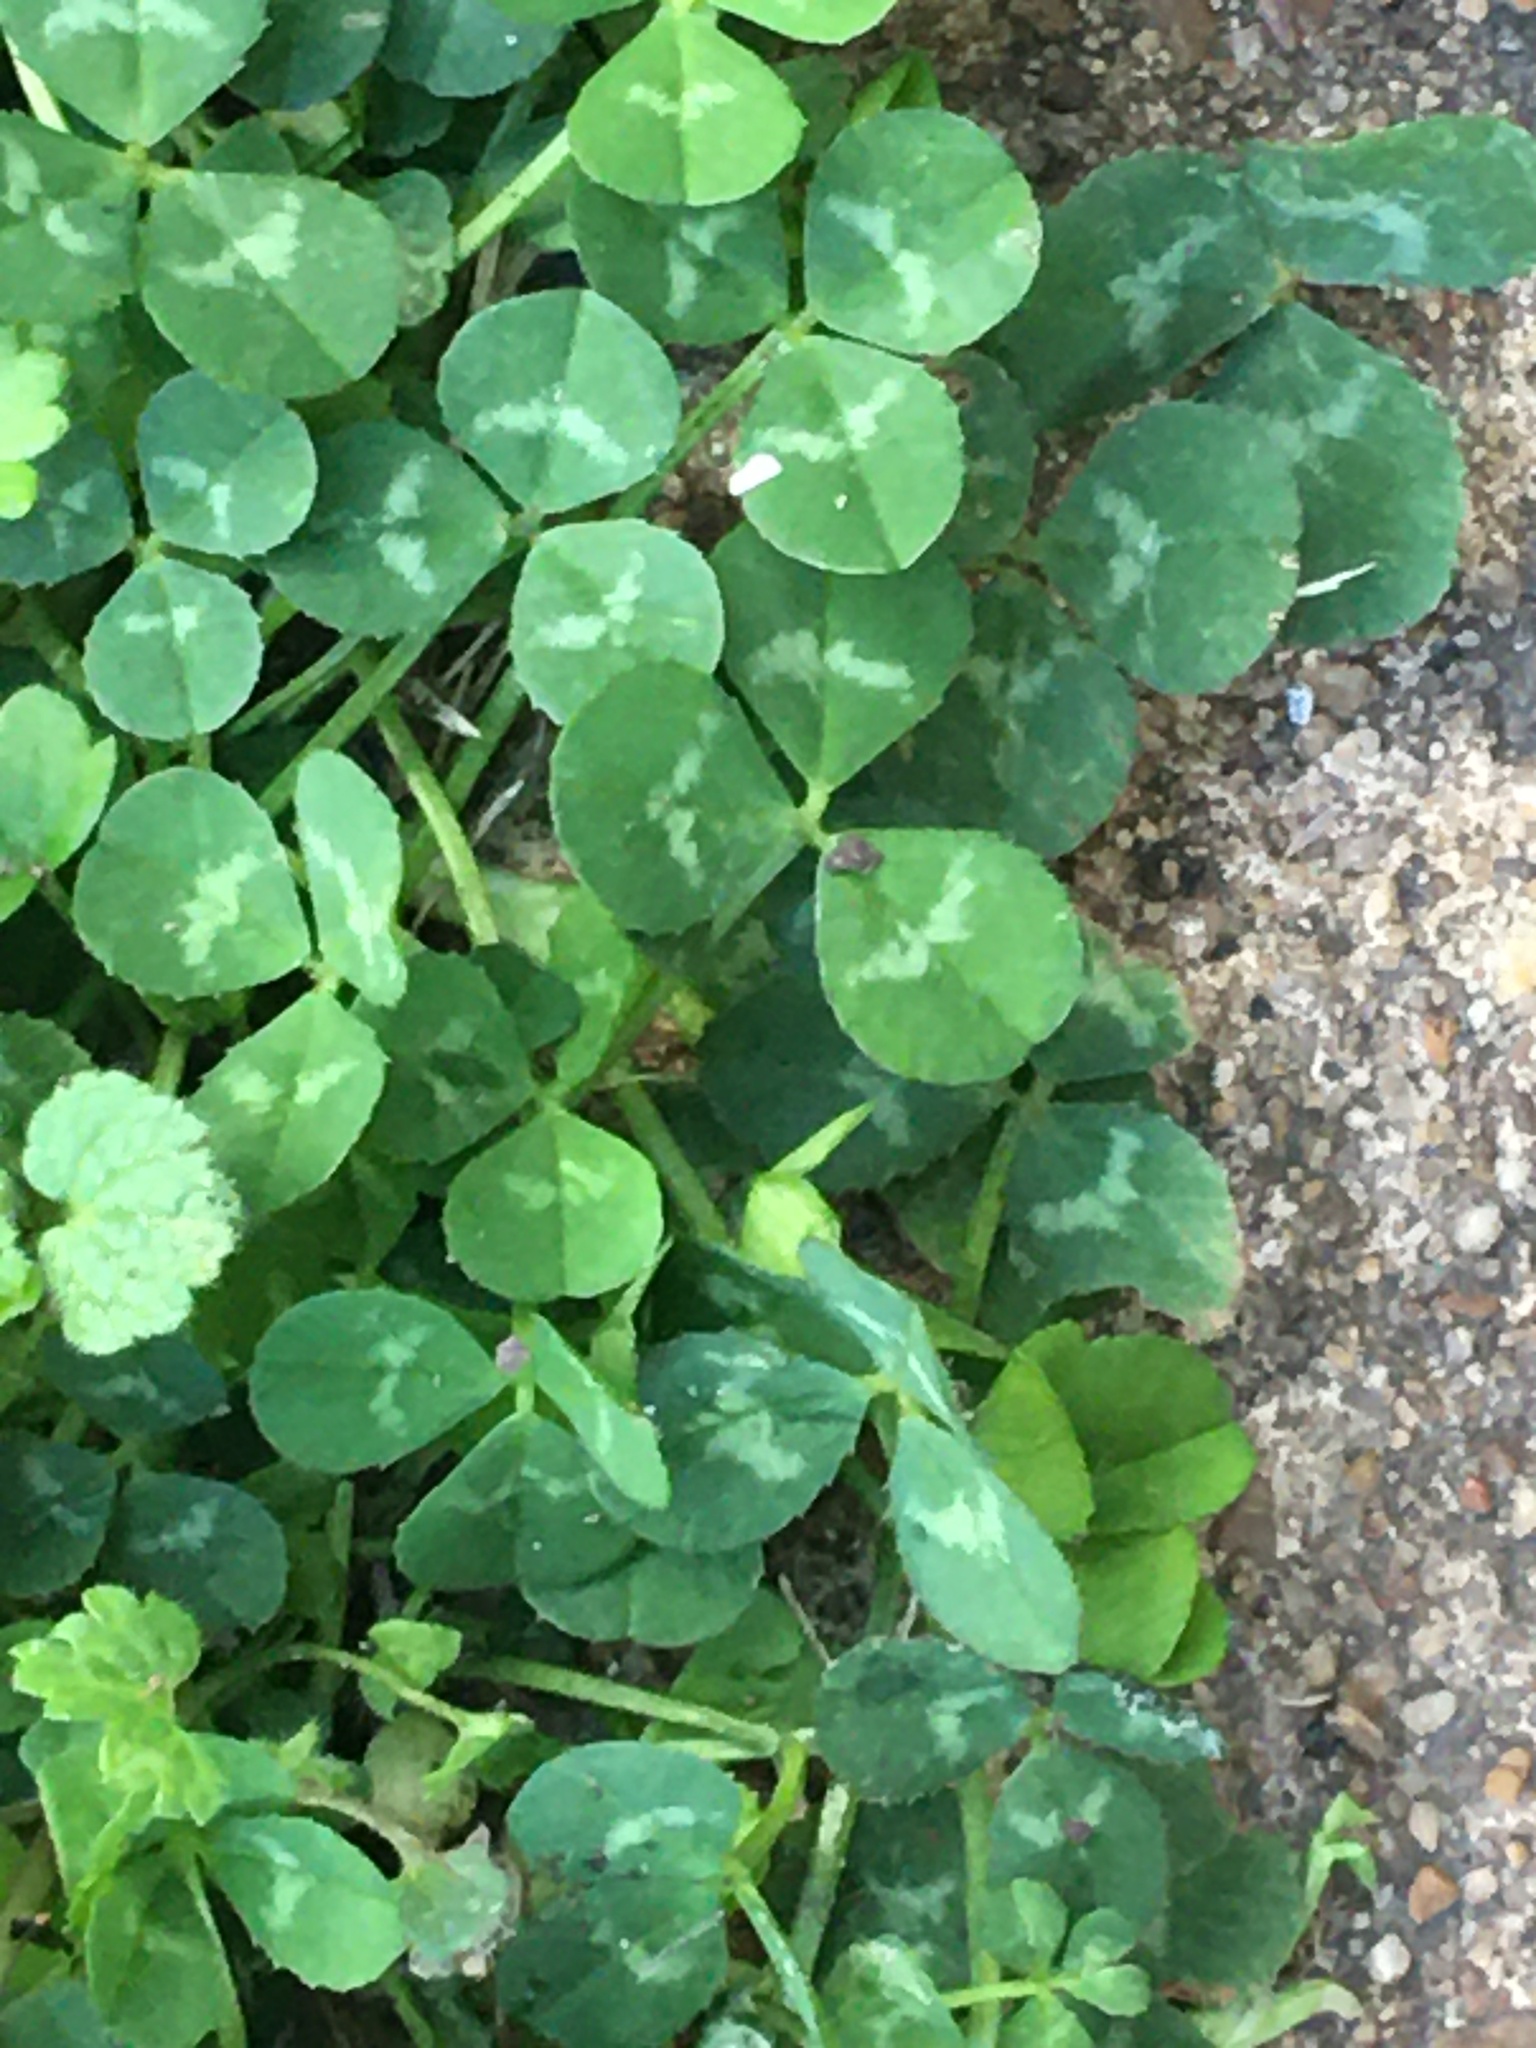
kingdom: Plantae
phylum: Tracheophyta
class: Magnoliopsida
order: Fabales
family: Fabaceae
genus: Trifolium
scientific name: Trifolium repens
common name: White clover
